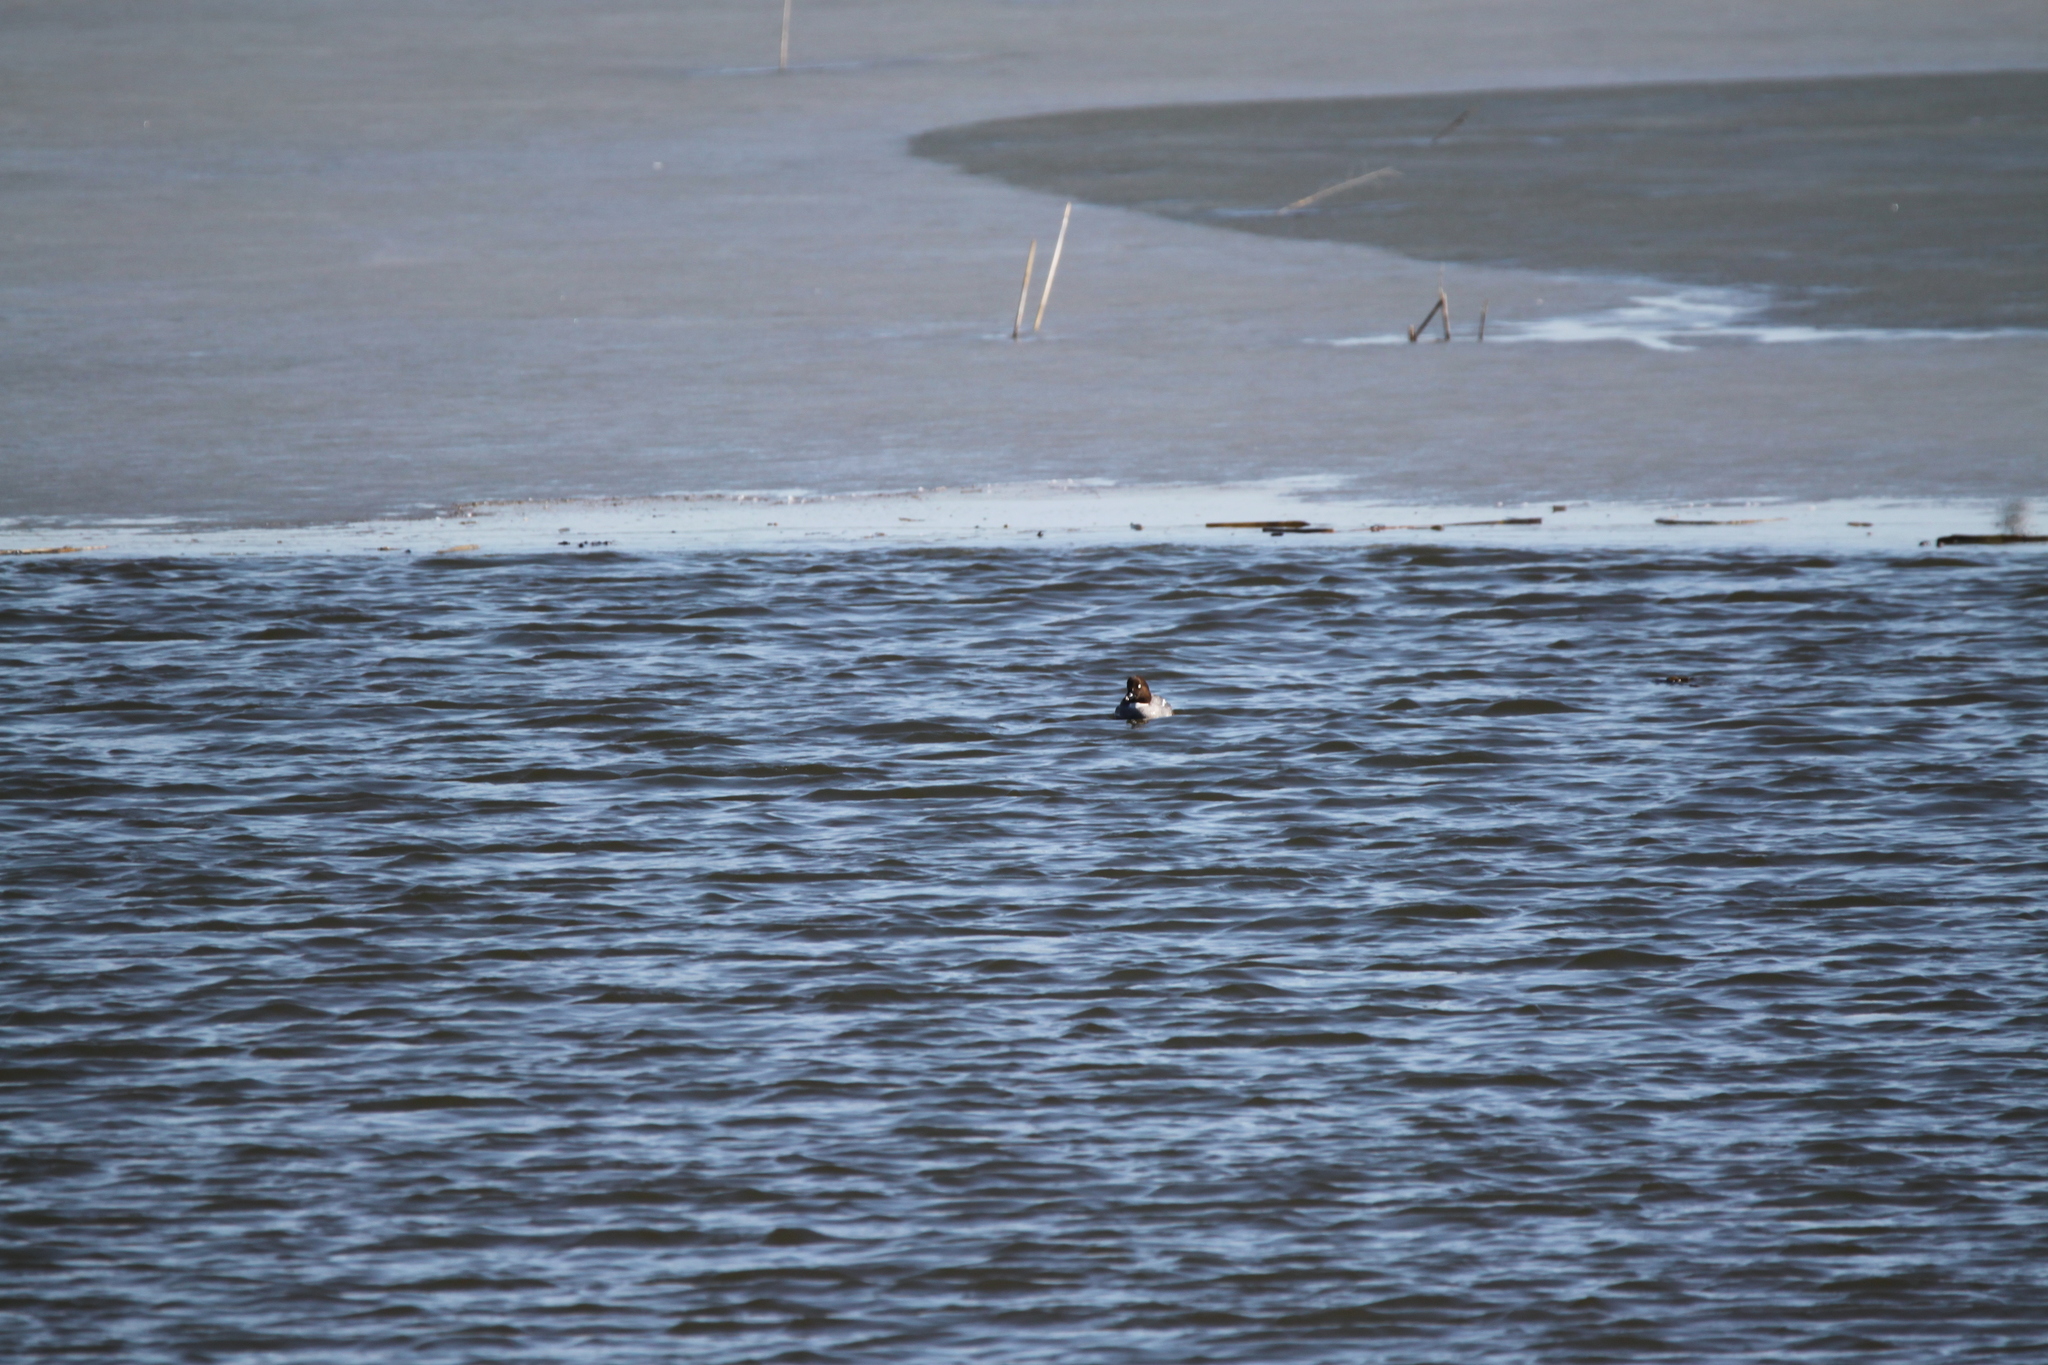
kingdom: Animalia
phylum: Chordata
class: Aves
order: Anseriformes
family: Anatidae
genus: Bucephala
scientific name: Bucephala clangula
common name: Common goldeneye
